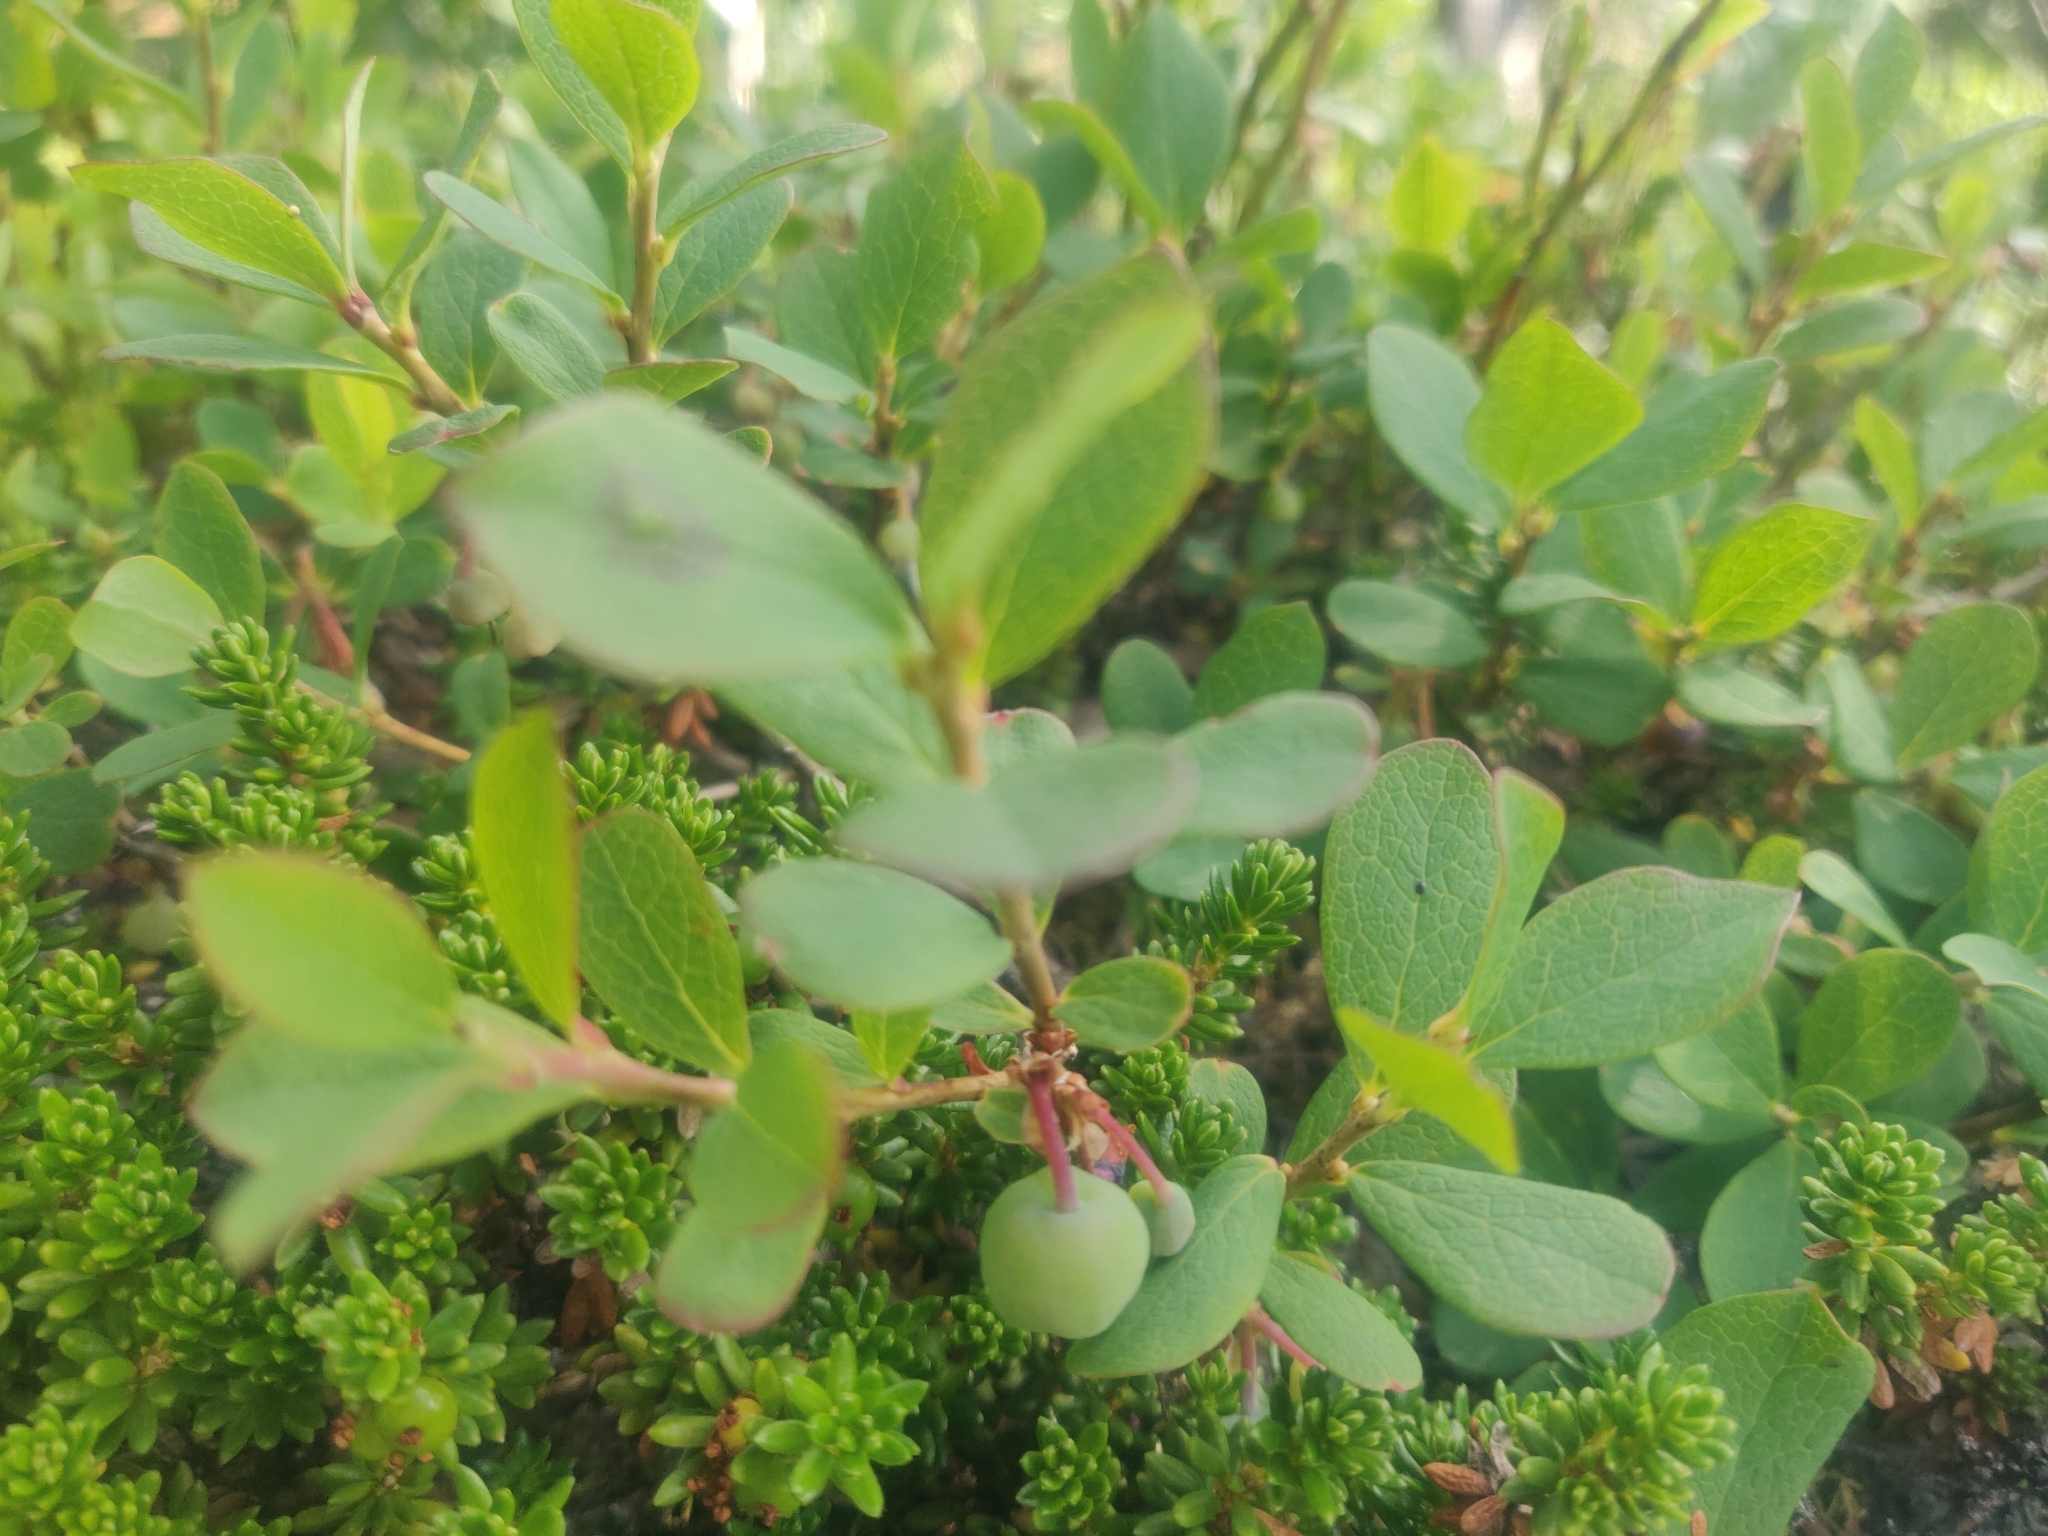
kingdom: Plantae
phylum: Tracheophyta
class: Magnoliopsida
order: Ericales
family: Ericaceae
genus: Vaccinium
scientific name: Vaccinium uliginosum
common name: Bog bilberry
